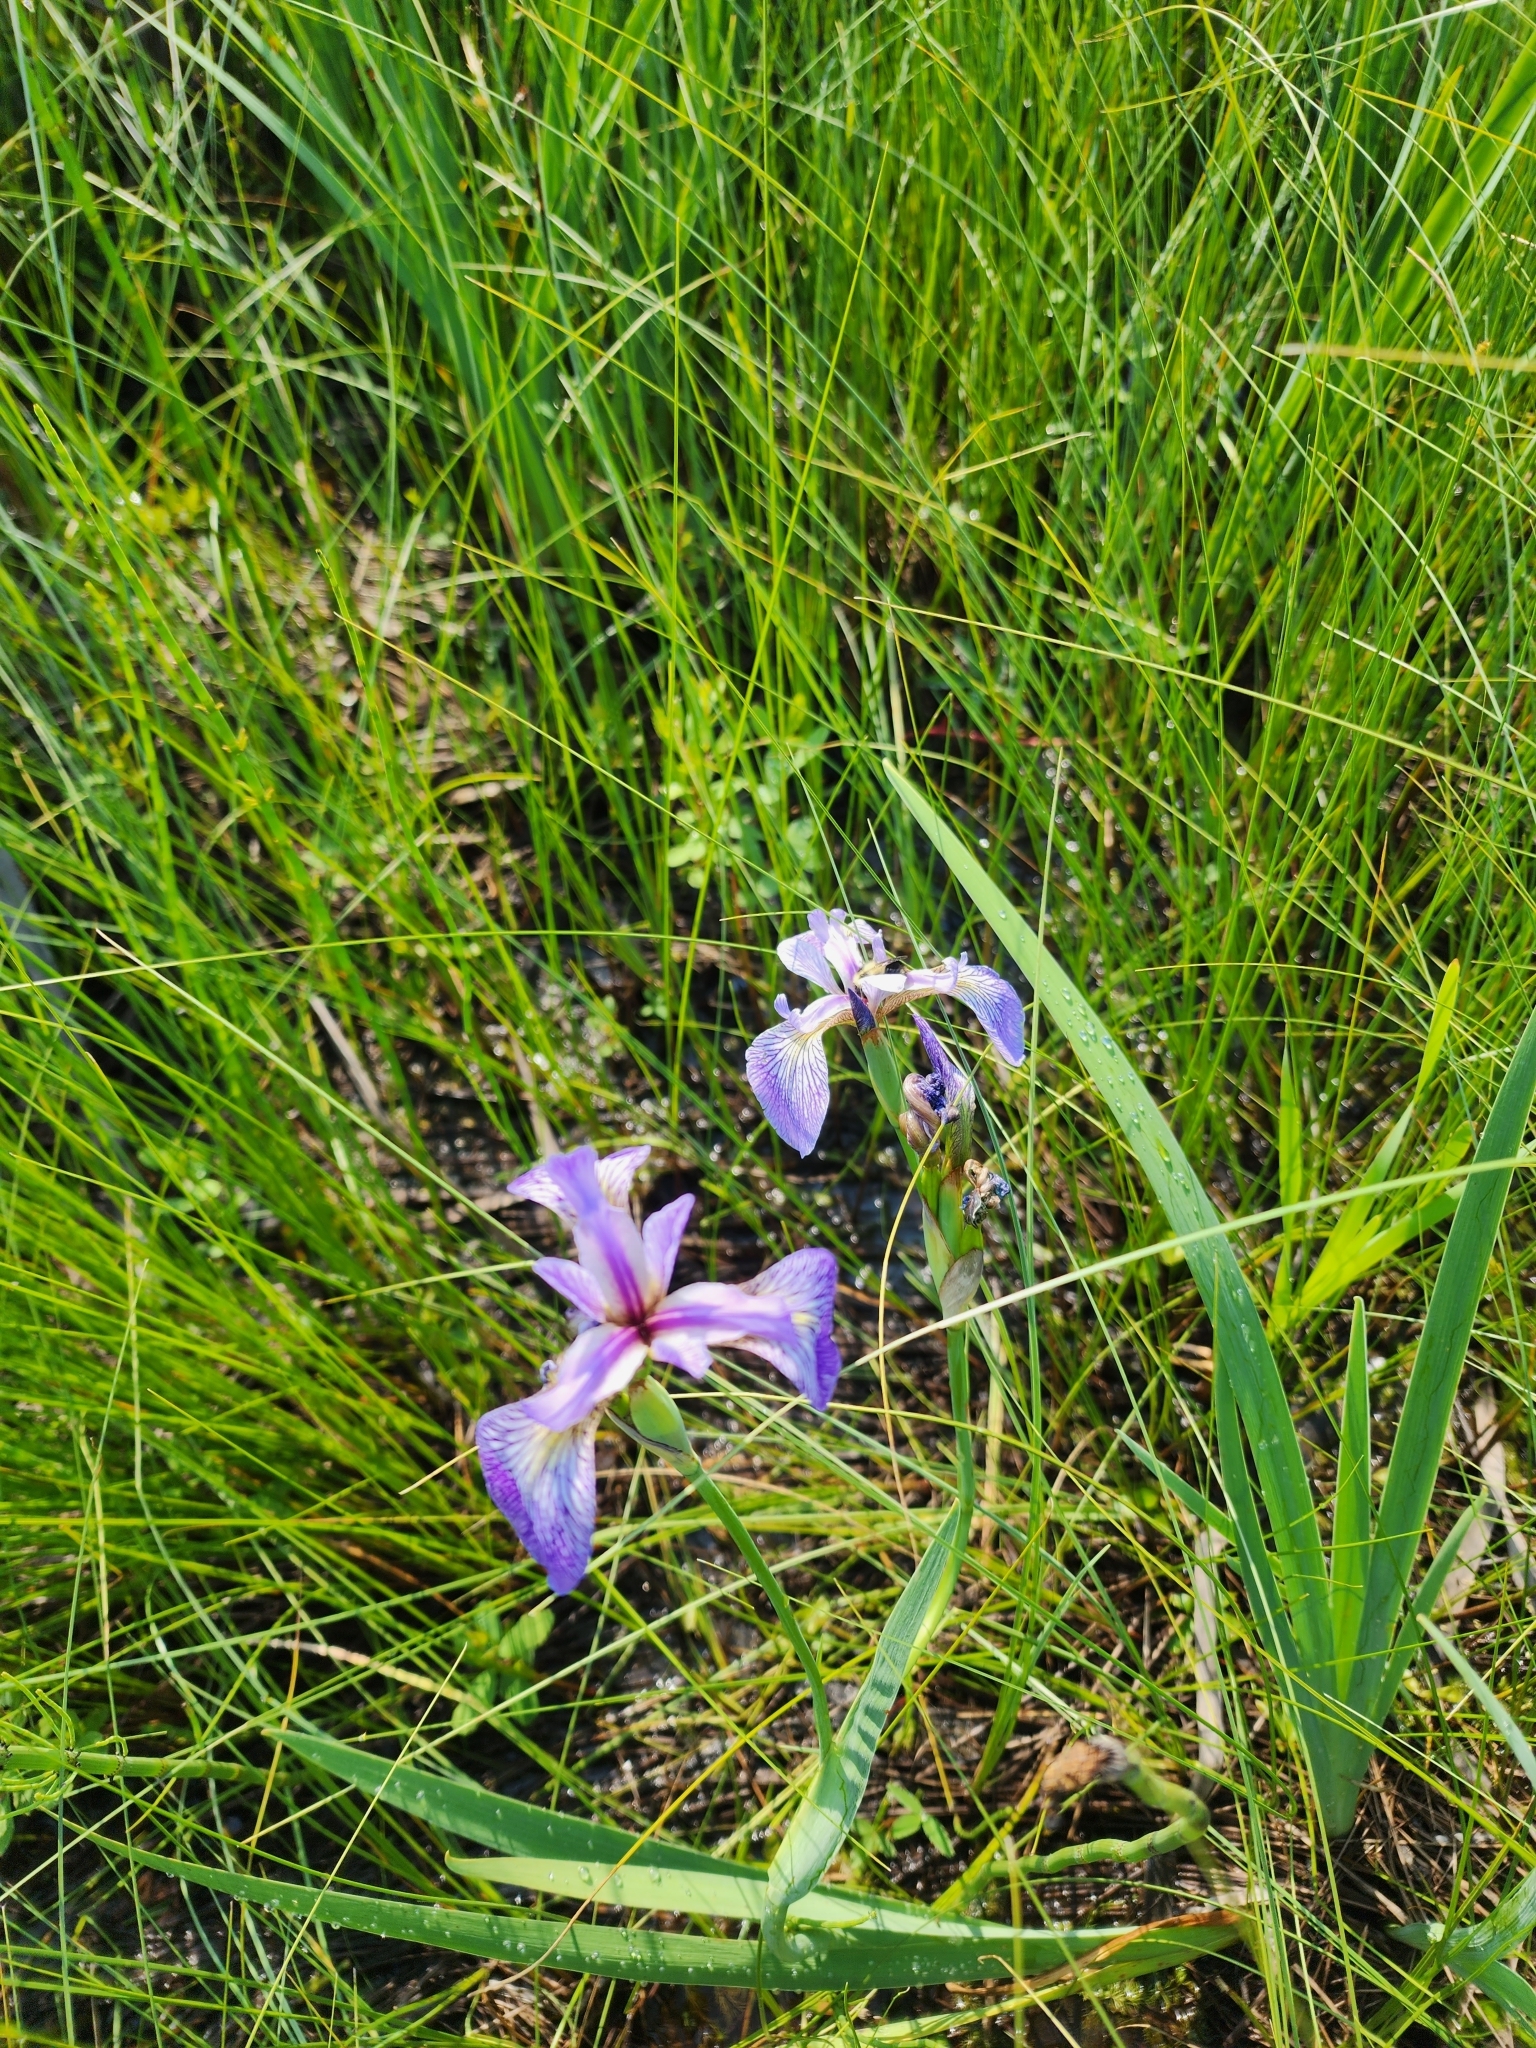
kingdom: Plantae
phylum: Tracheophyta
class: Liliopsida
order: Asparagales
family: Iridaceae
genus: Iris
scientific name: Iris versicolor
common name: Purple iris
